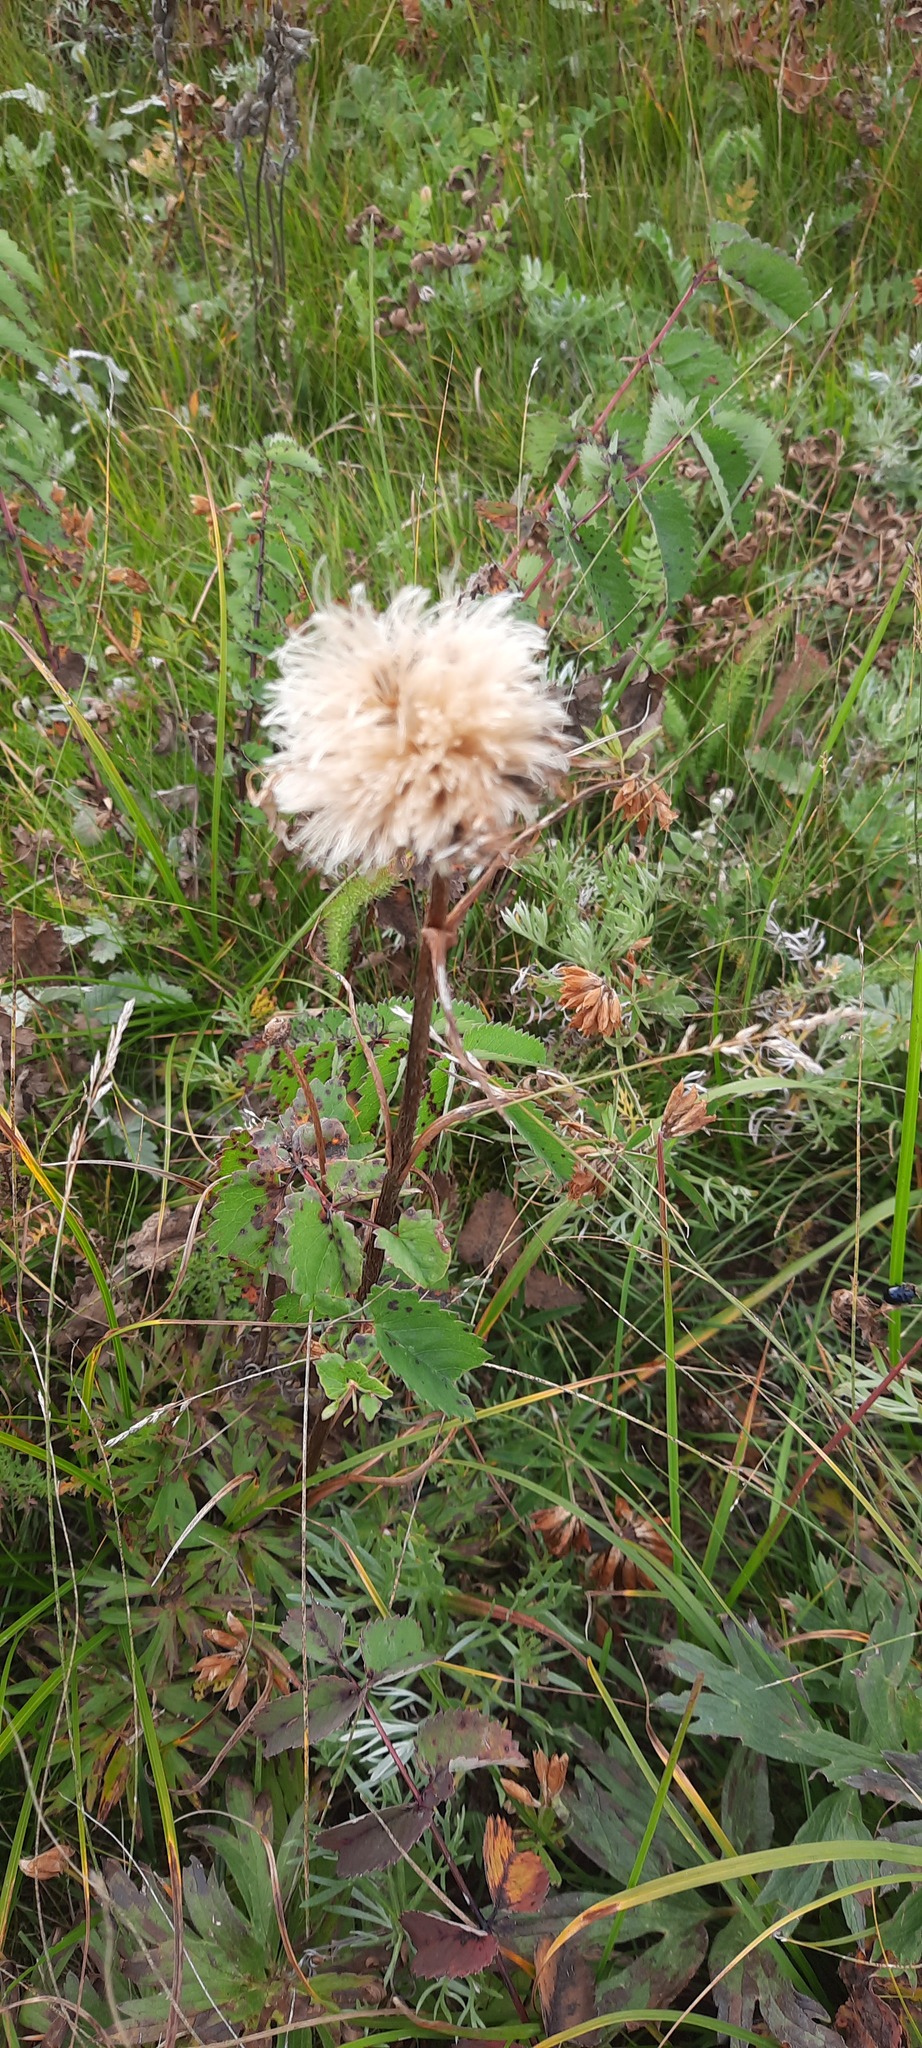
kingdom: Plantae
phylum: Tracheophyta
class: Magnoliopsida
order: Asterales
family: Asteraceae
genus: Leuzea
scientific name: Leuzea uniflora
